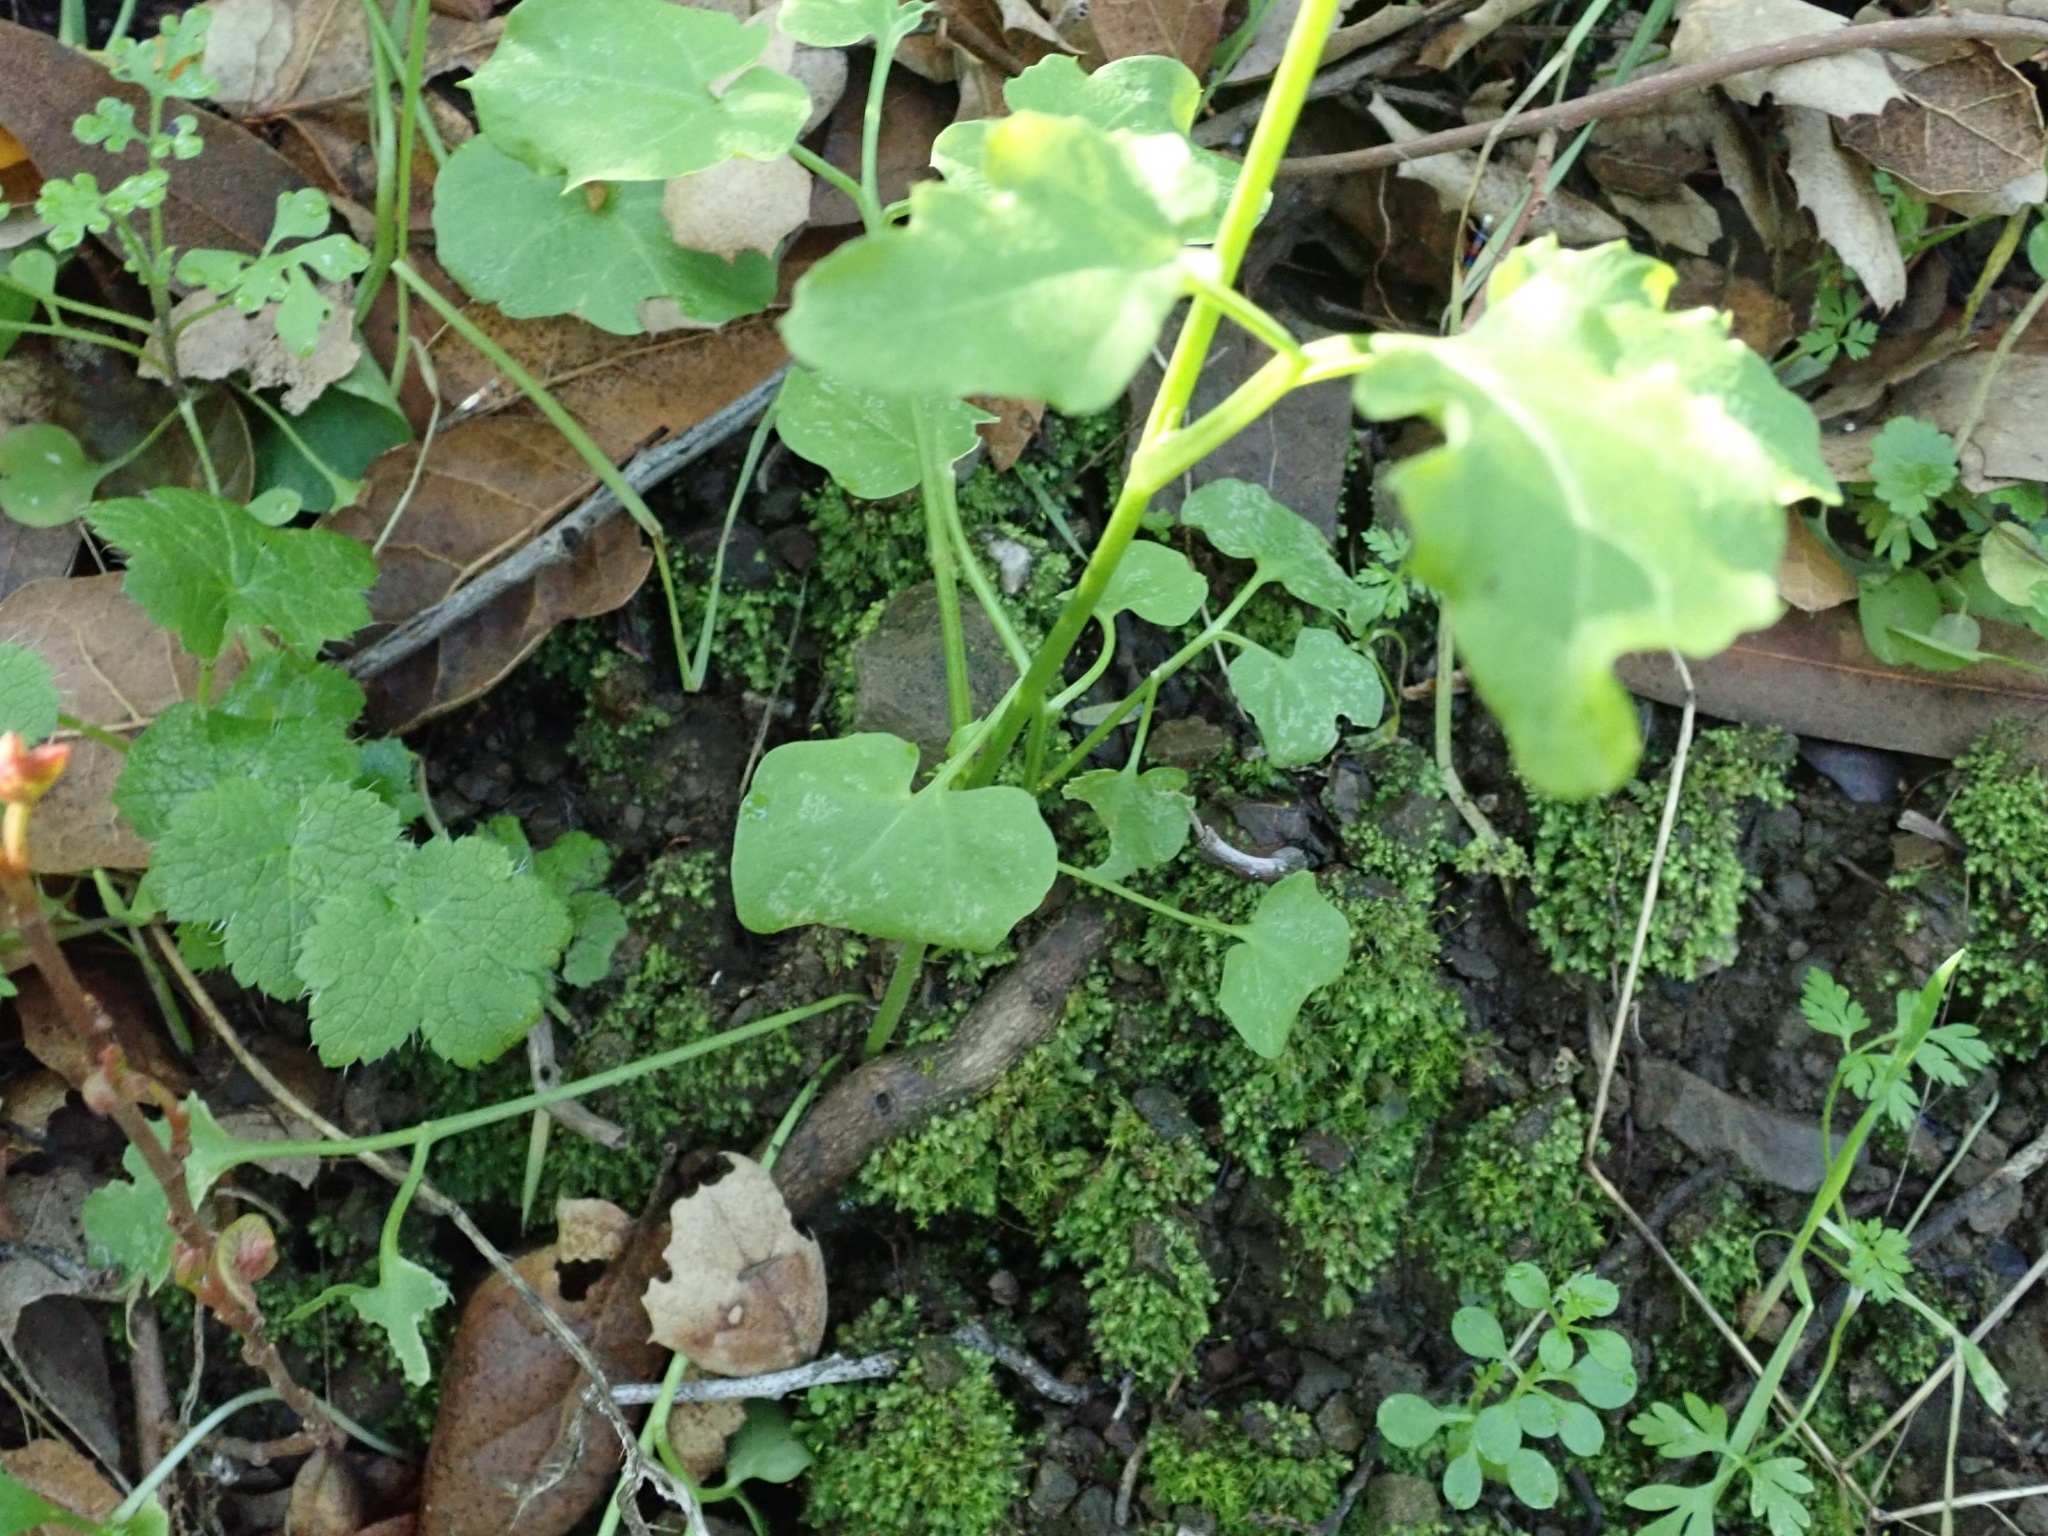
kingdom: Plantae
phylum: Tracheophyta
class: Magnoliopsida
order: Brassicales
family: Brassicaceae
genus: Cardamine
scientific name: Cardamine californica
